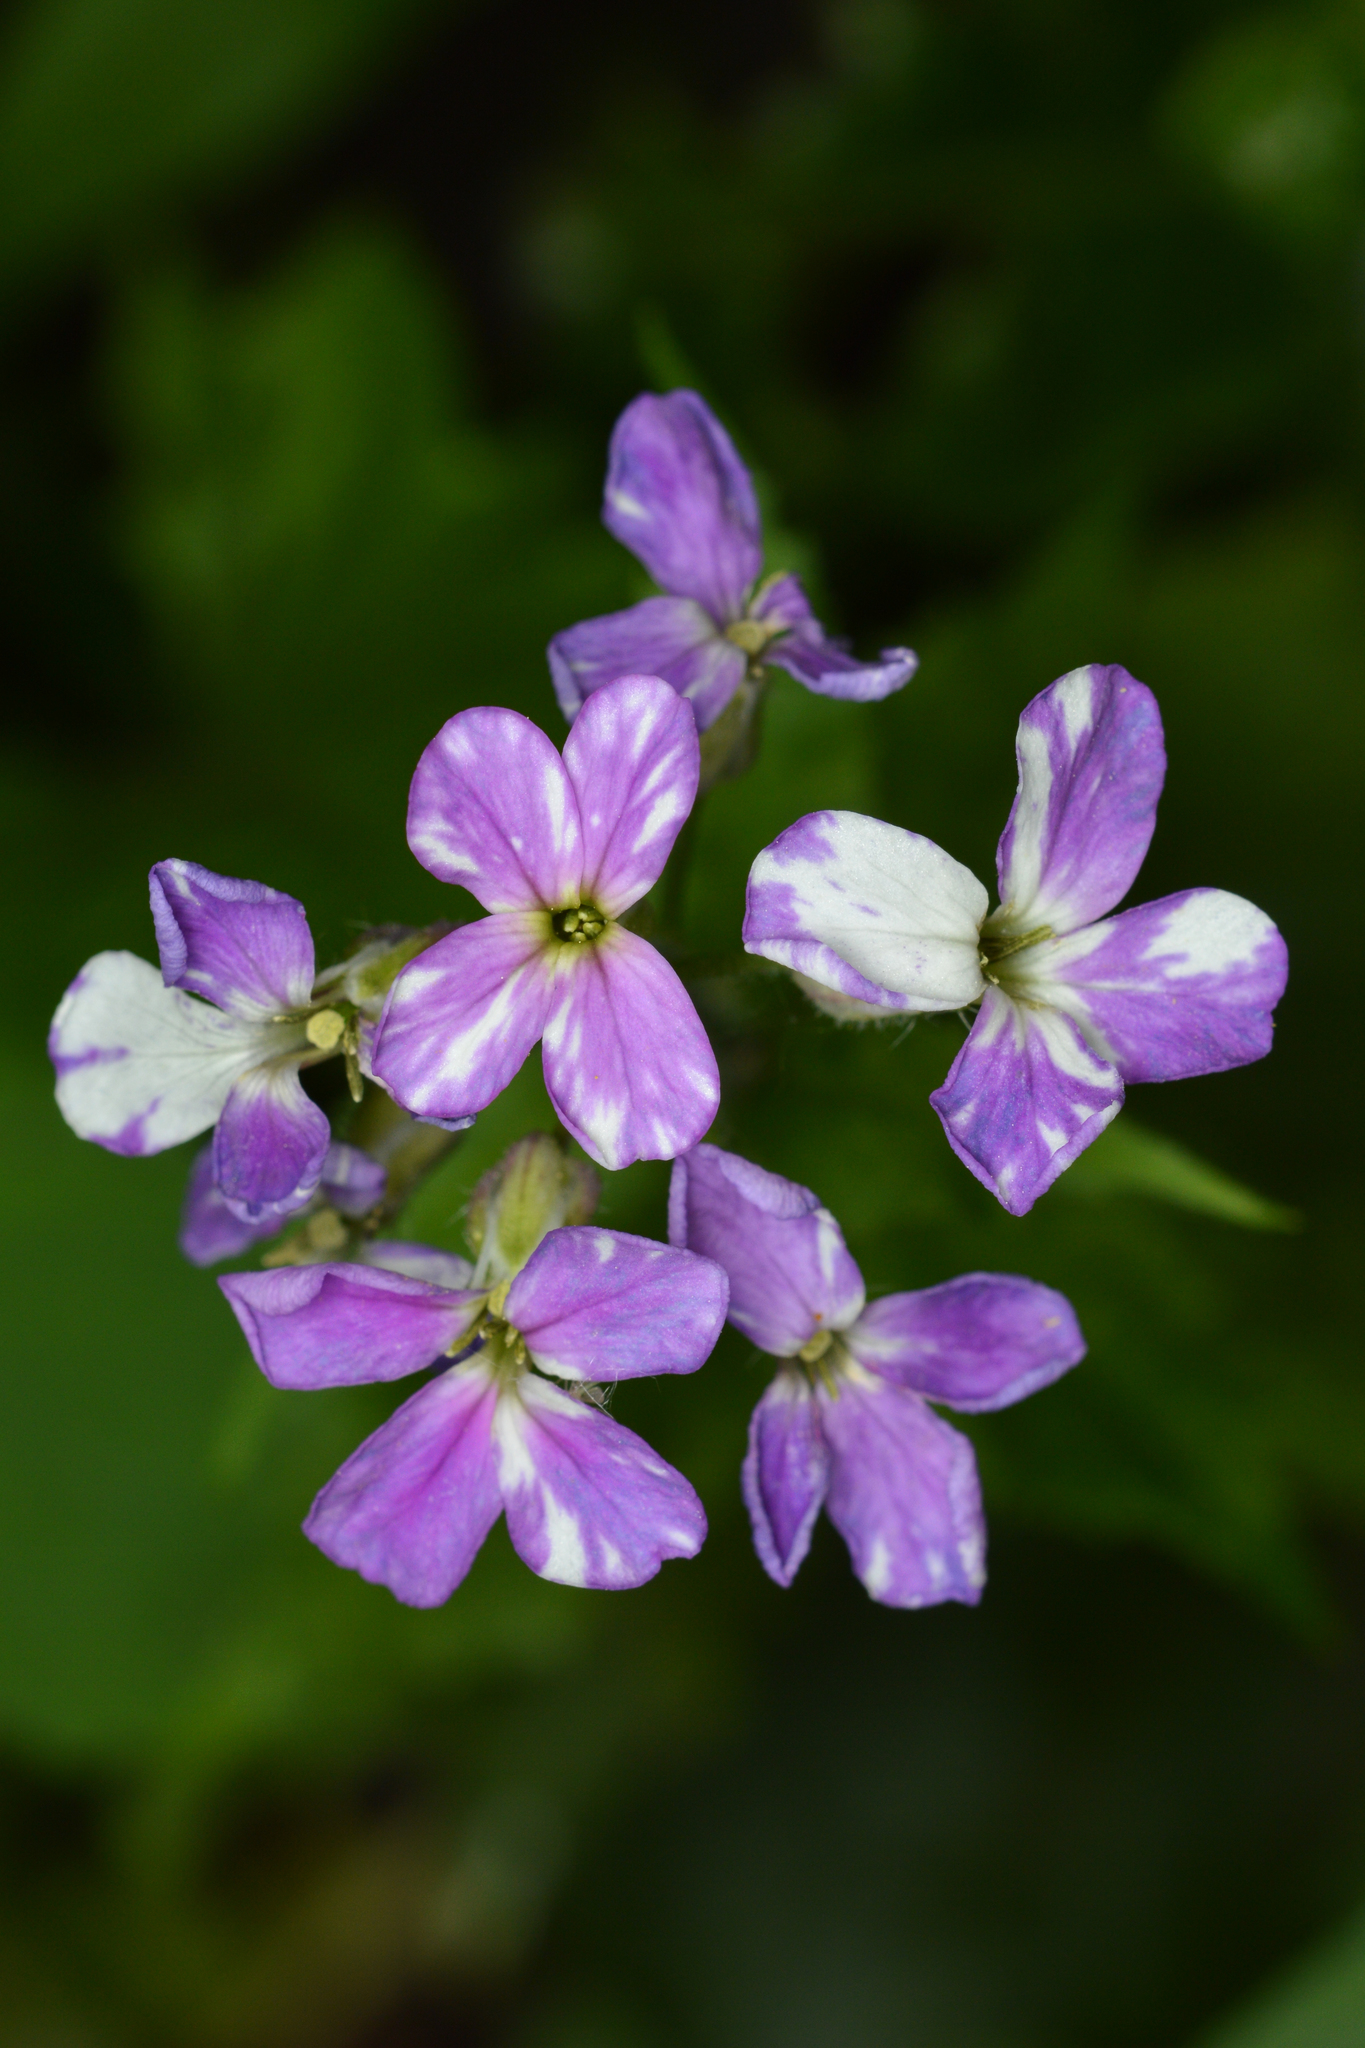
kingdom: Plantae
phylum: Tracheophyta
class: Magnoliopsida
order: Brassicales
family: Brassicaceae
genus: Hesperis
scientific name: Hesperis matronalis
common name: Dame's-violet
